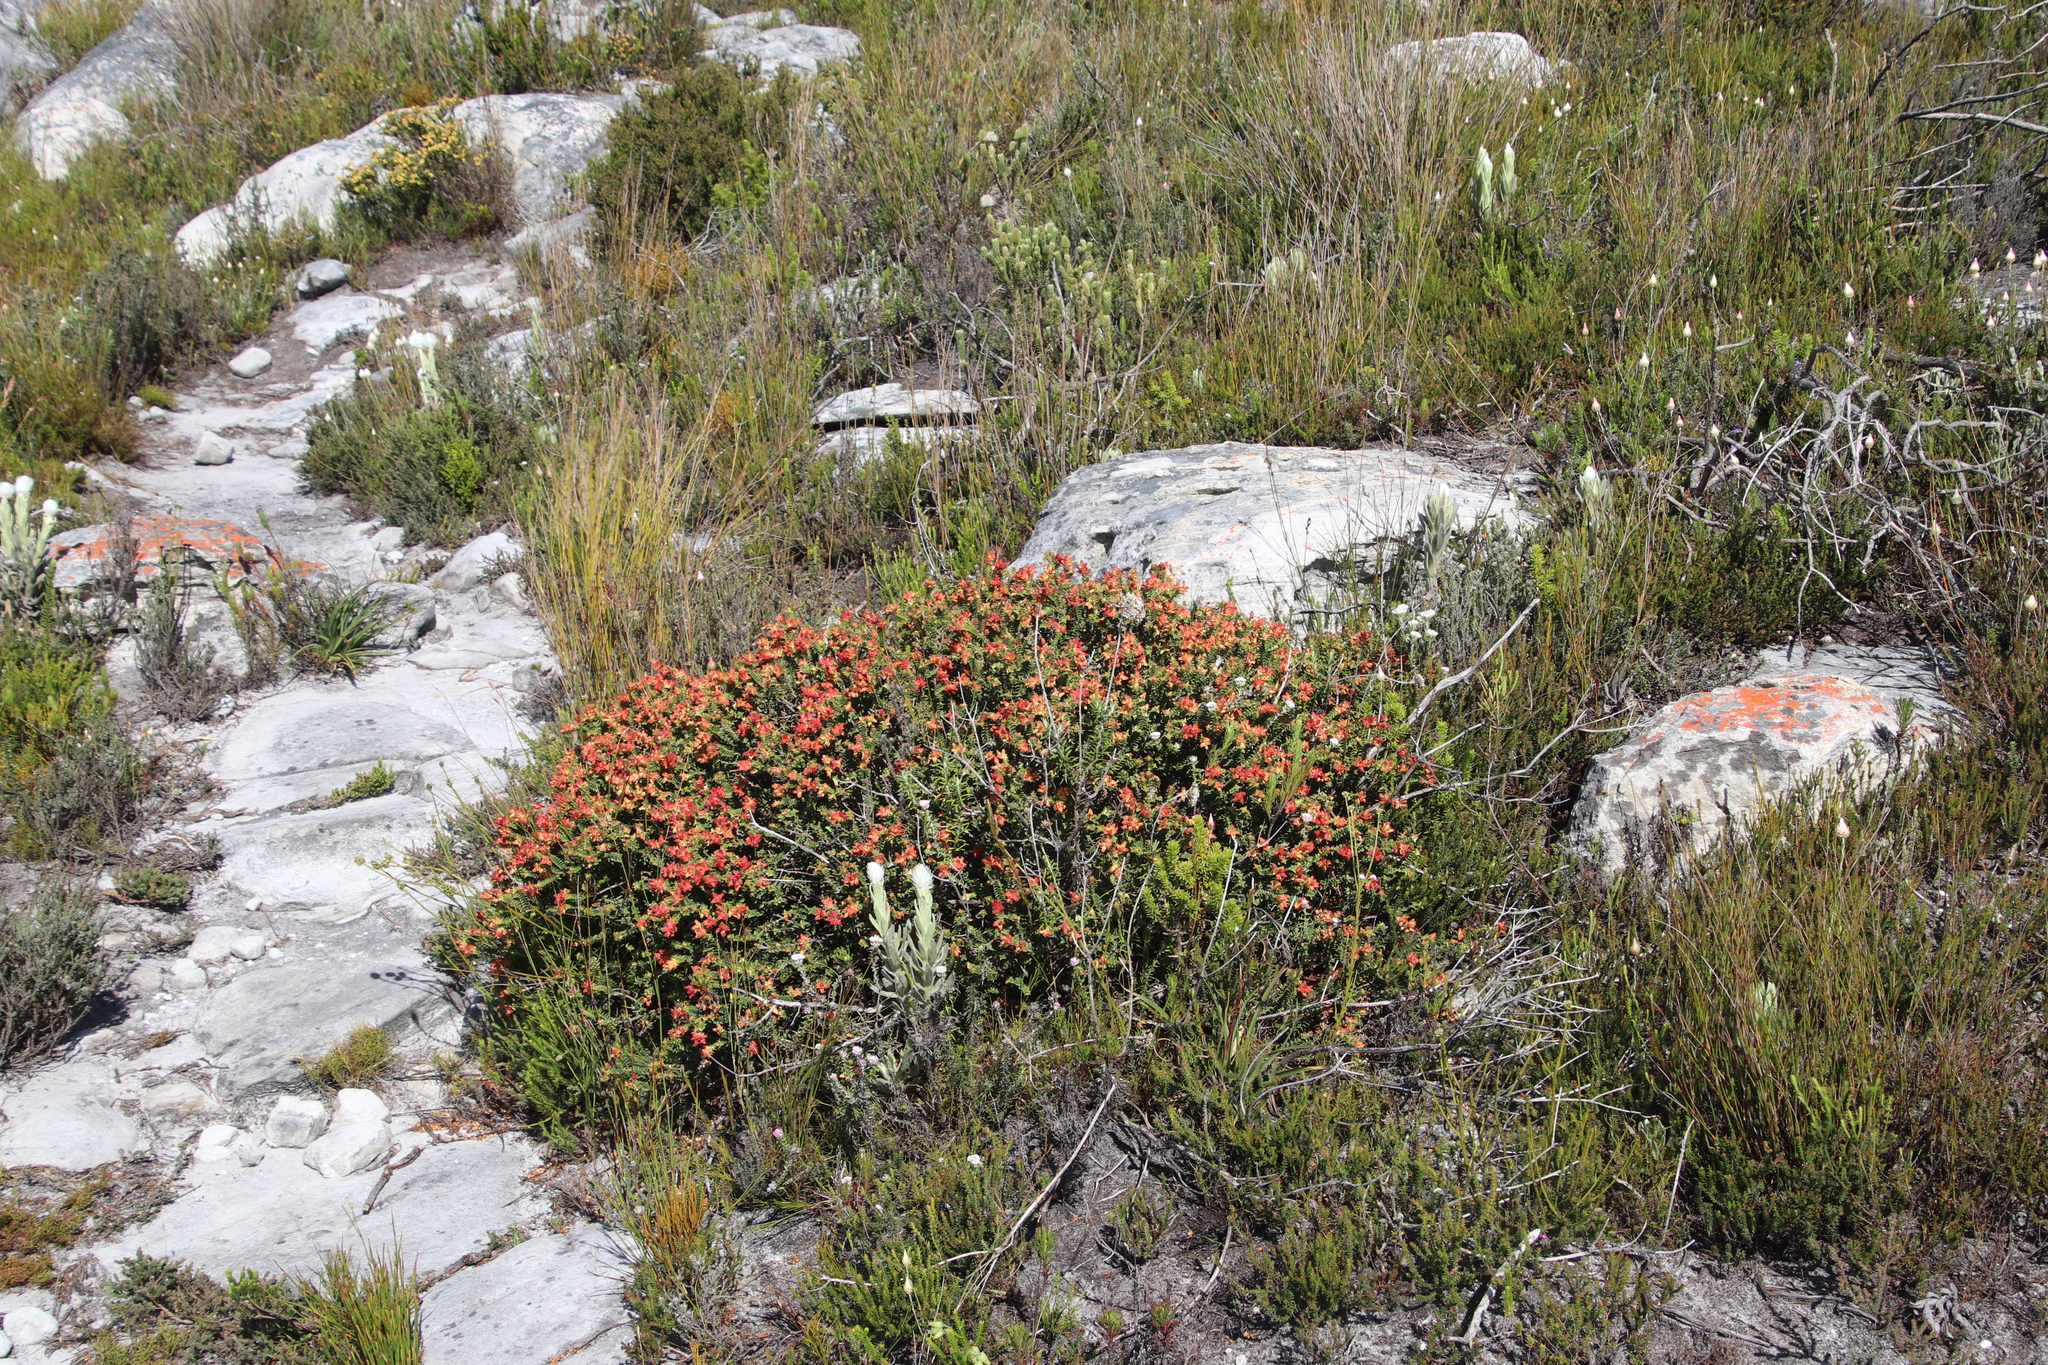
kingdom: Plantae
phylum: Tracheophyta
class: Magnoliopsida
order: Myrtales
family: Penaeaceae
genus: Penaea
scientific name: Penaea mucronata
